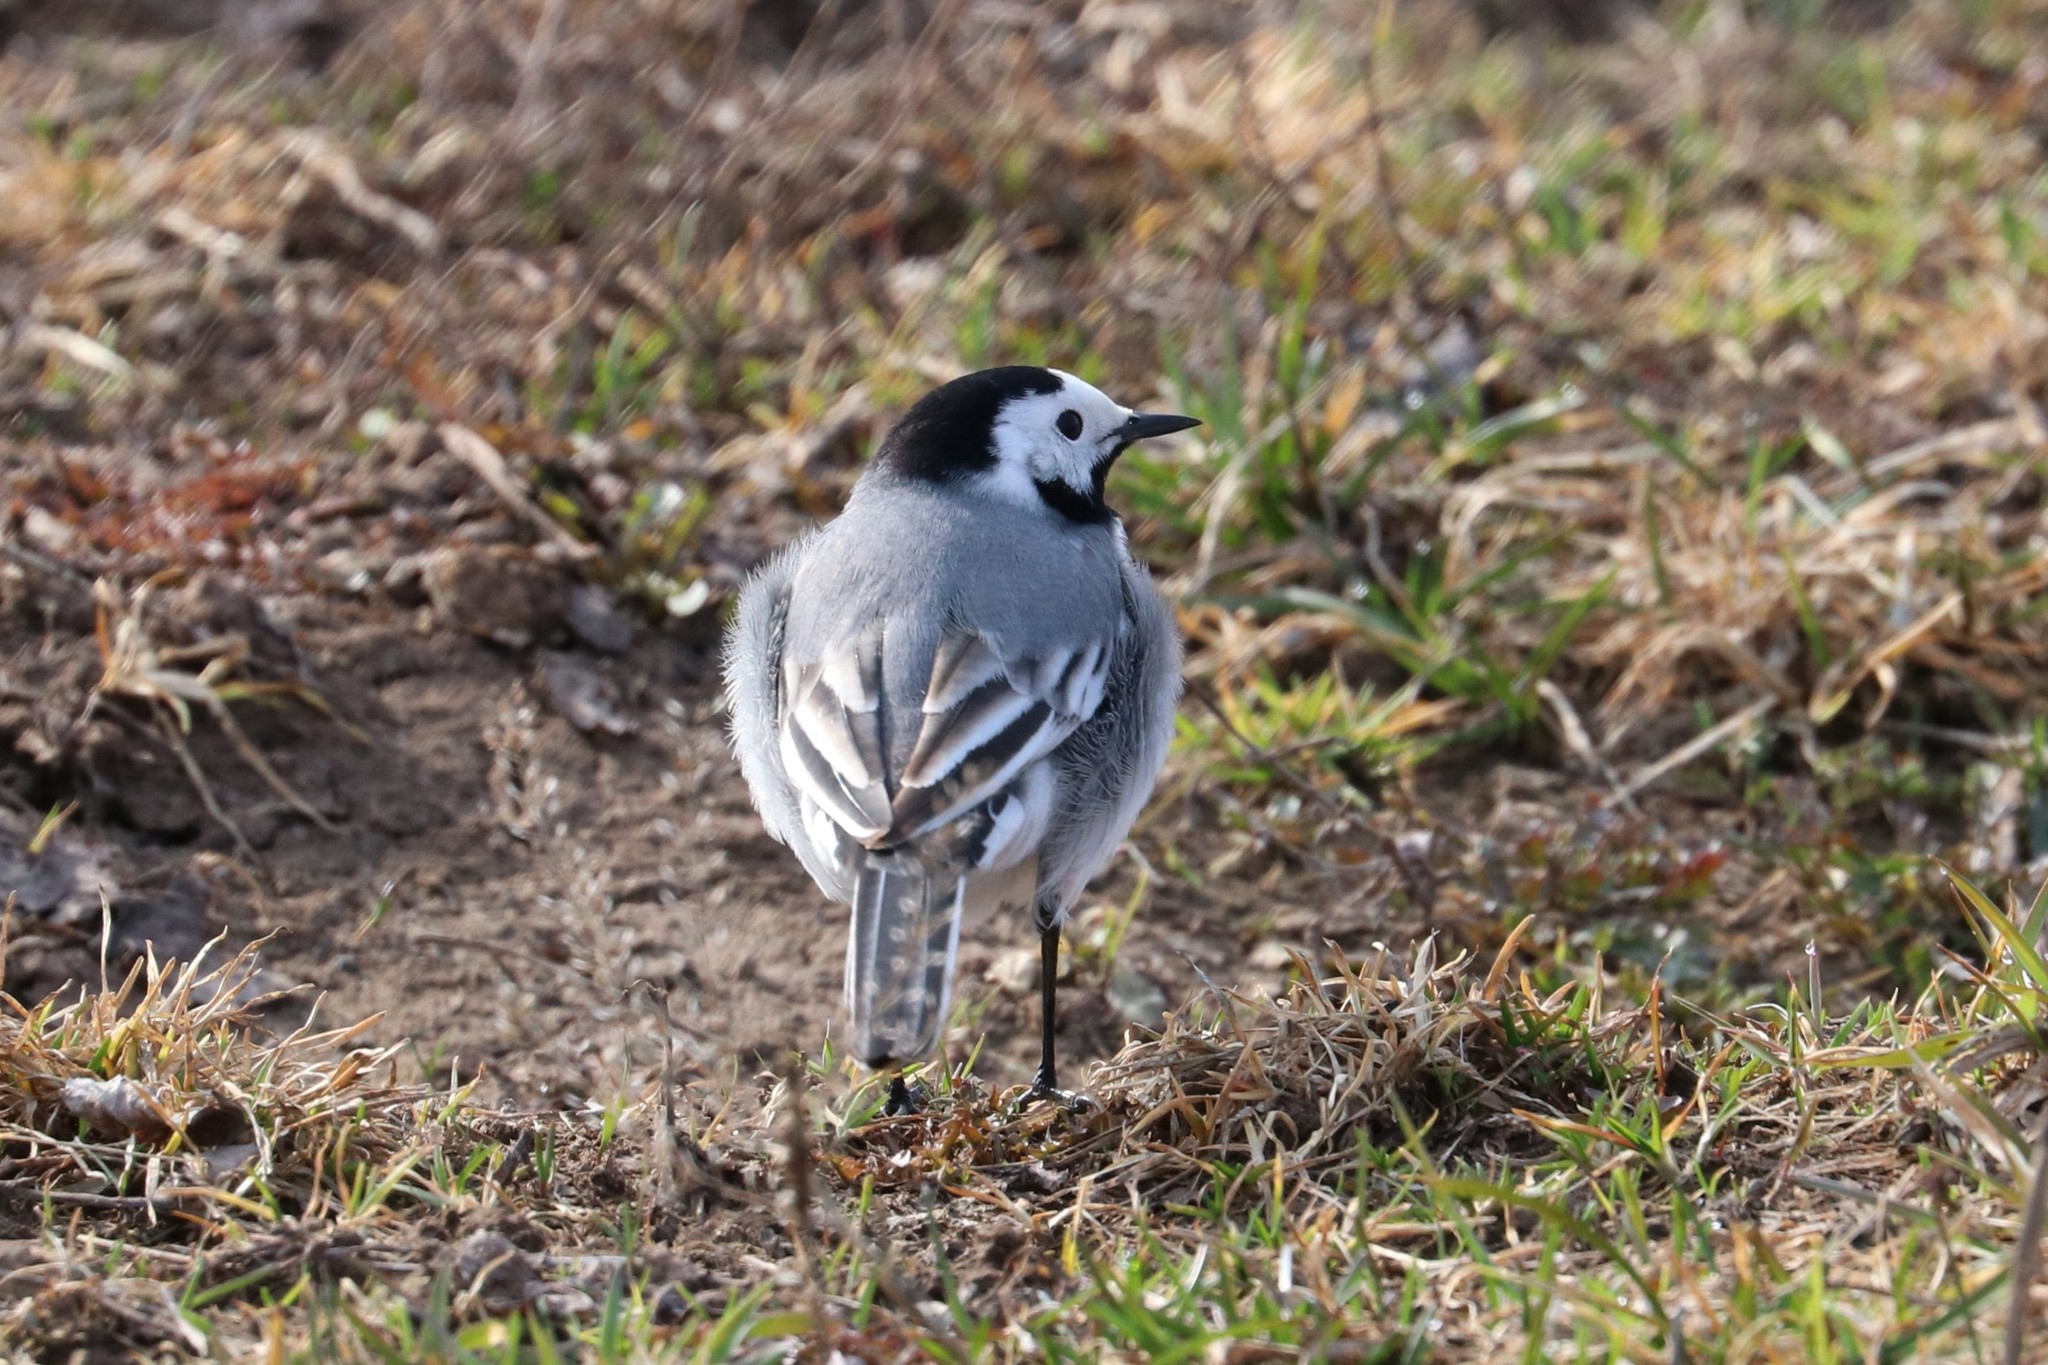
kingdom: Animalia
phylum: Chordata
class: Aves
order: Passeriformes
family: Motacillidae
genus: Motacilla
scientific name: Motacilla alba
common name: White wagtail
